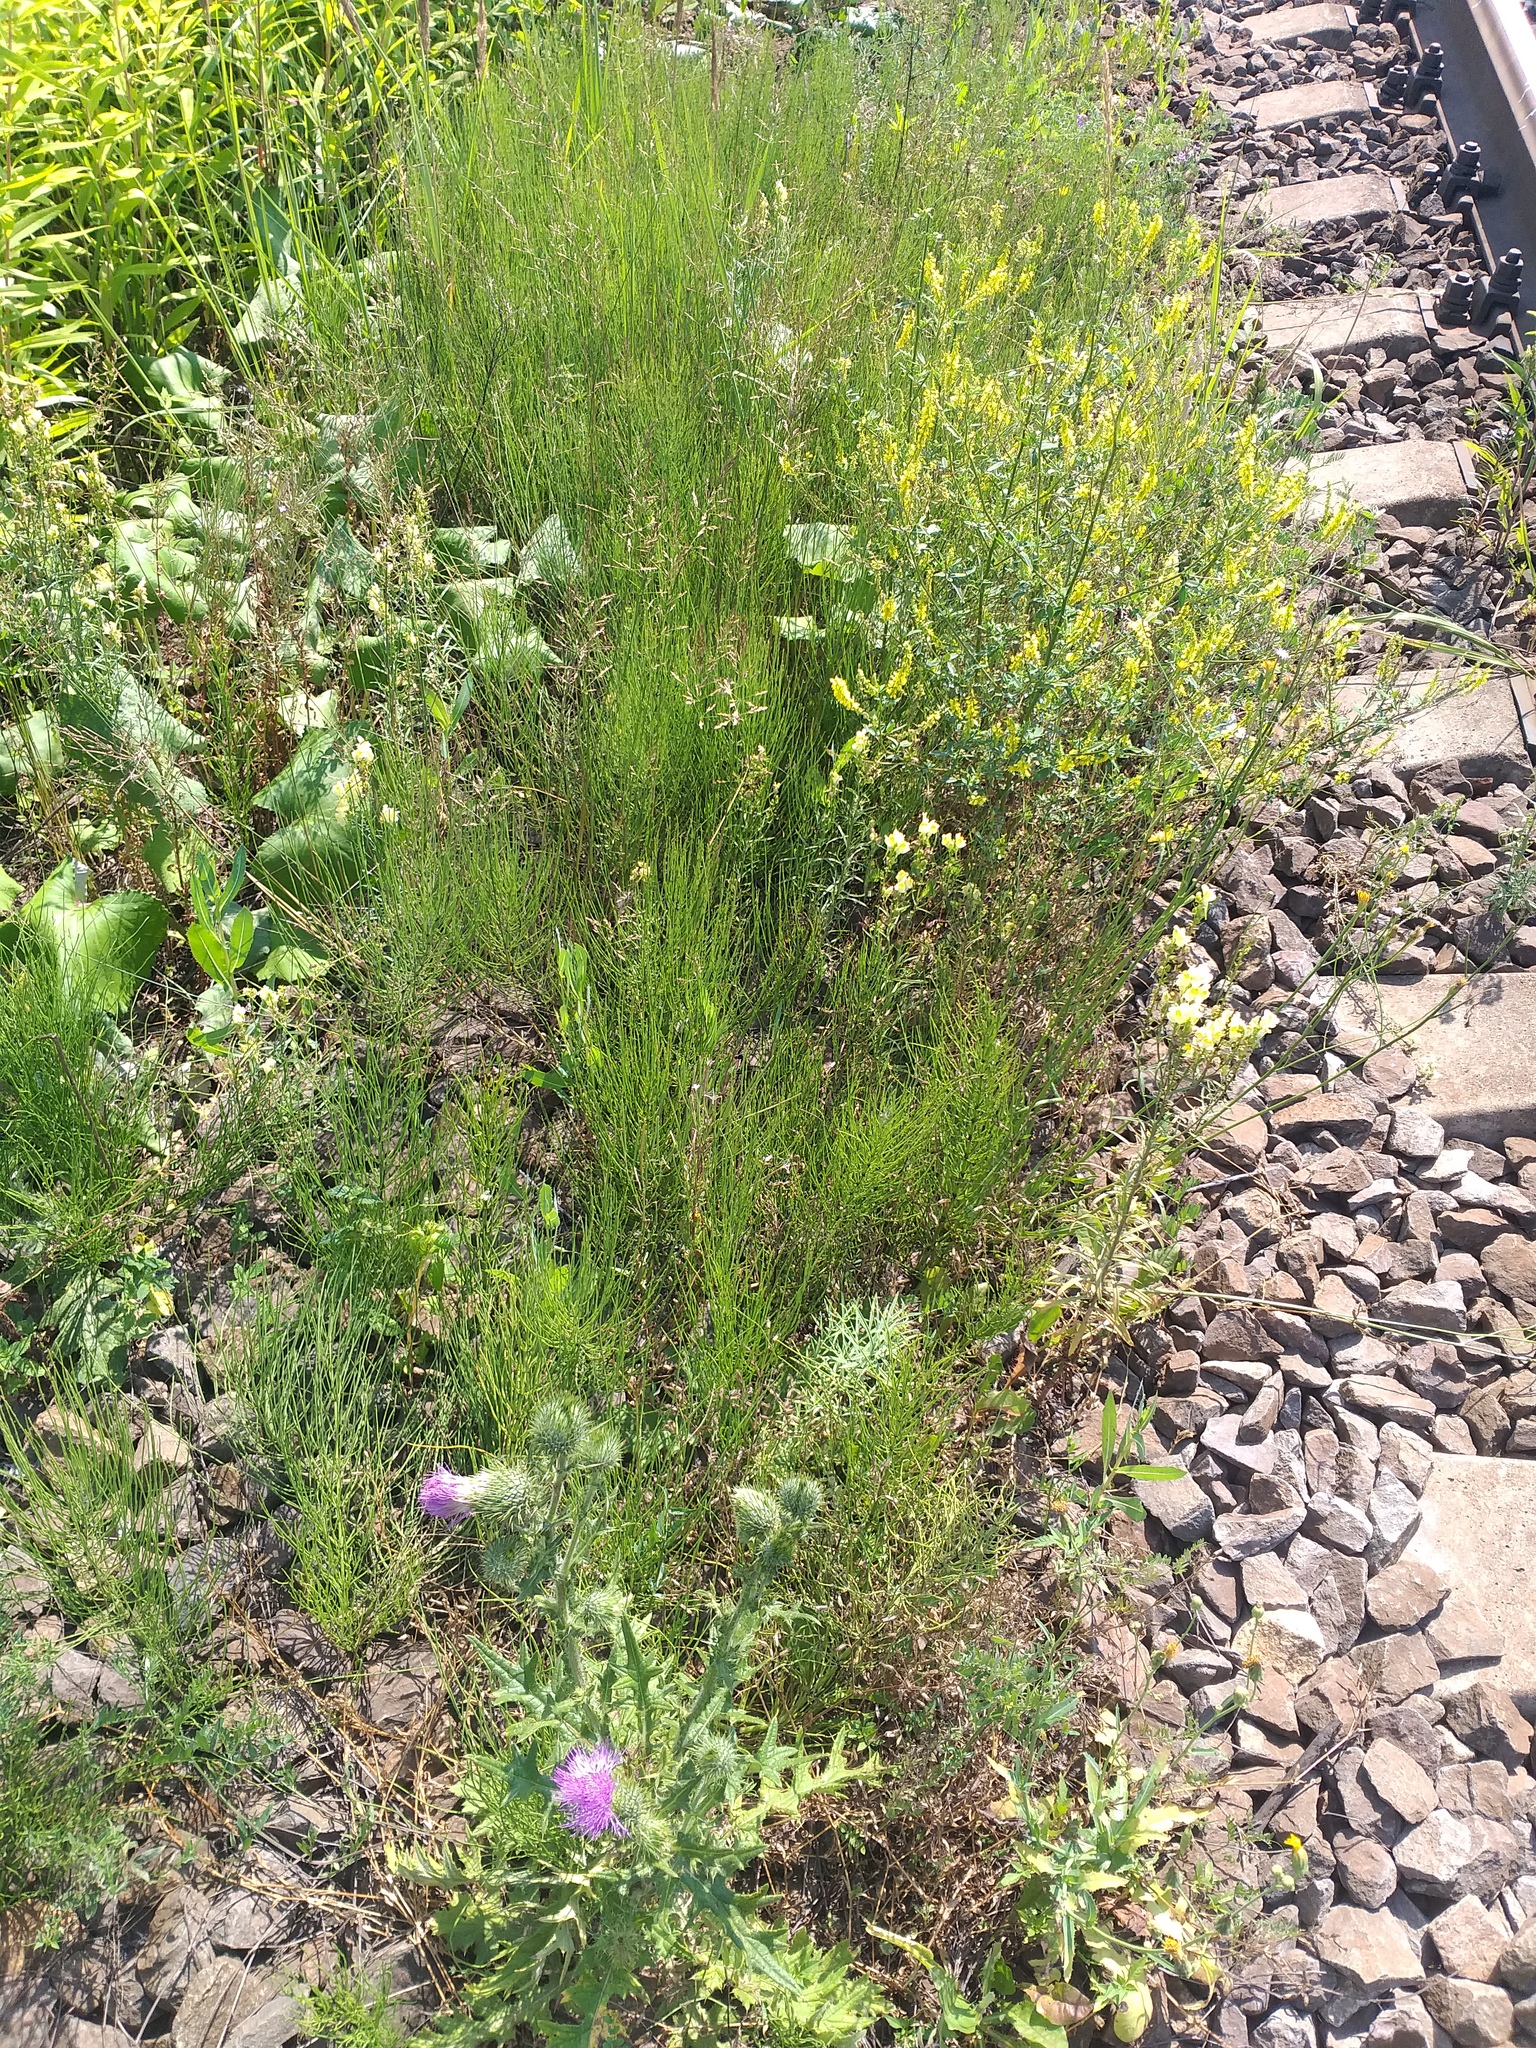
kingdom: Plantae
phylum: Tracheophyta
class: Polypodiopsida
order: Equisetales
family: Equisetaceae
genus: Equisetum
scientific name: Equisetum arvense
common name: Field horsetail
